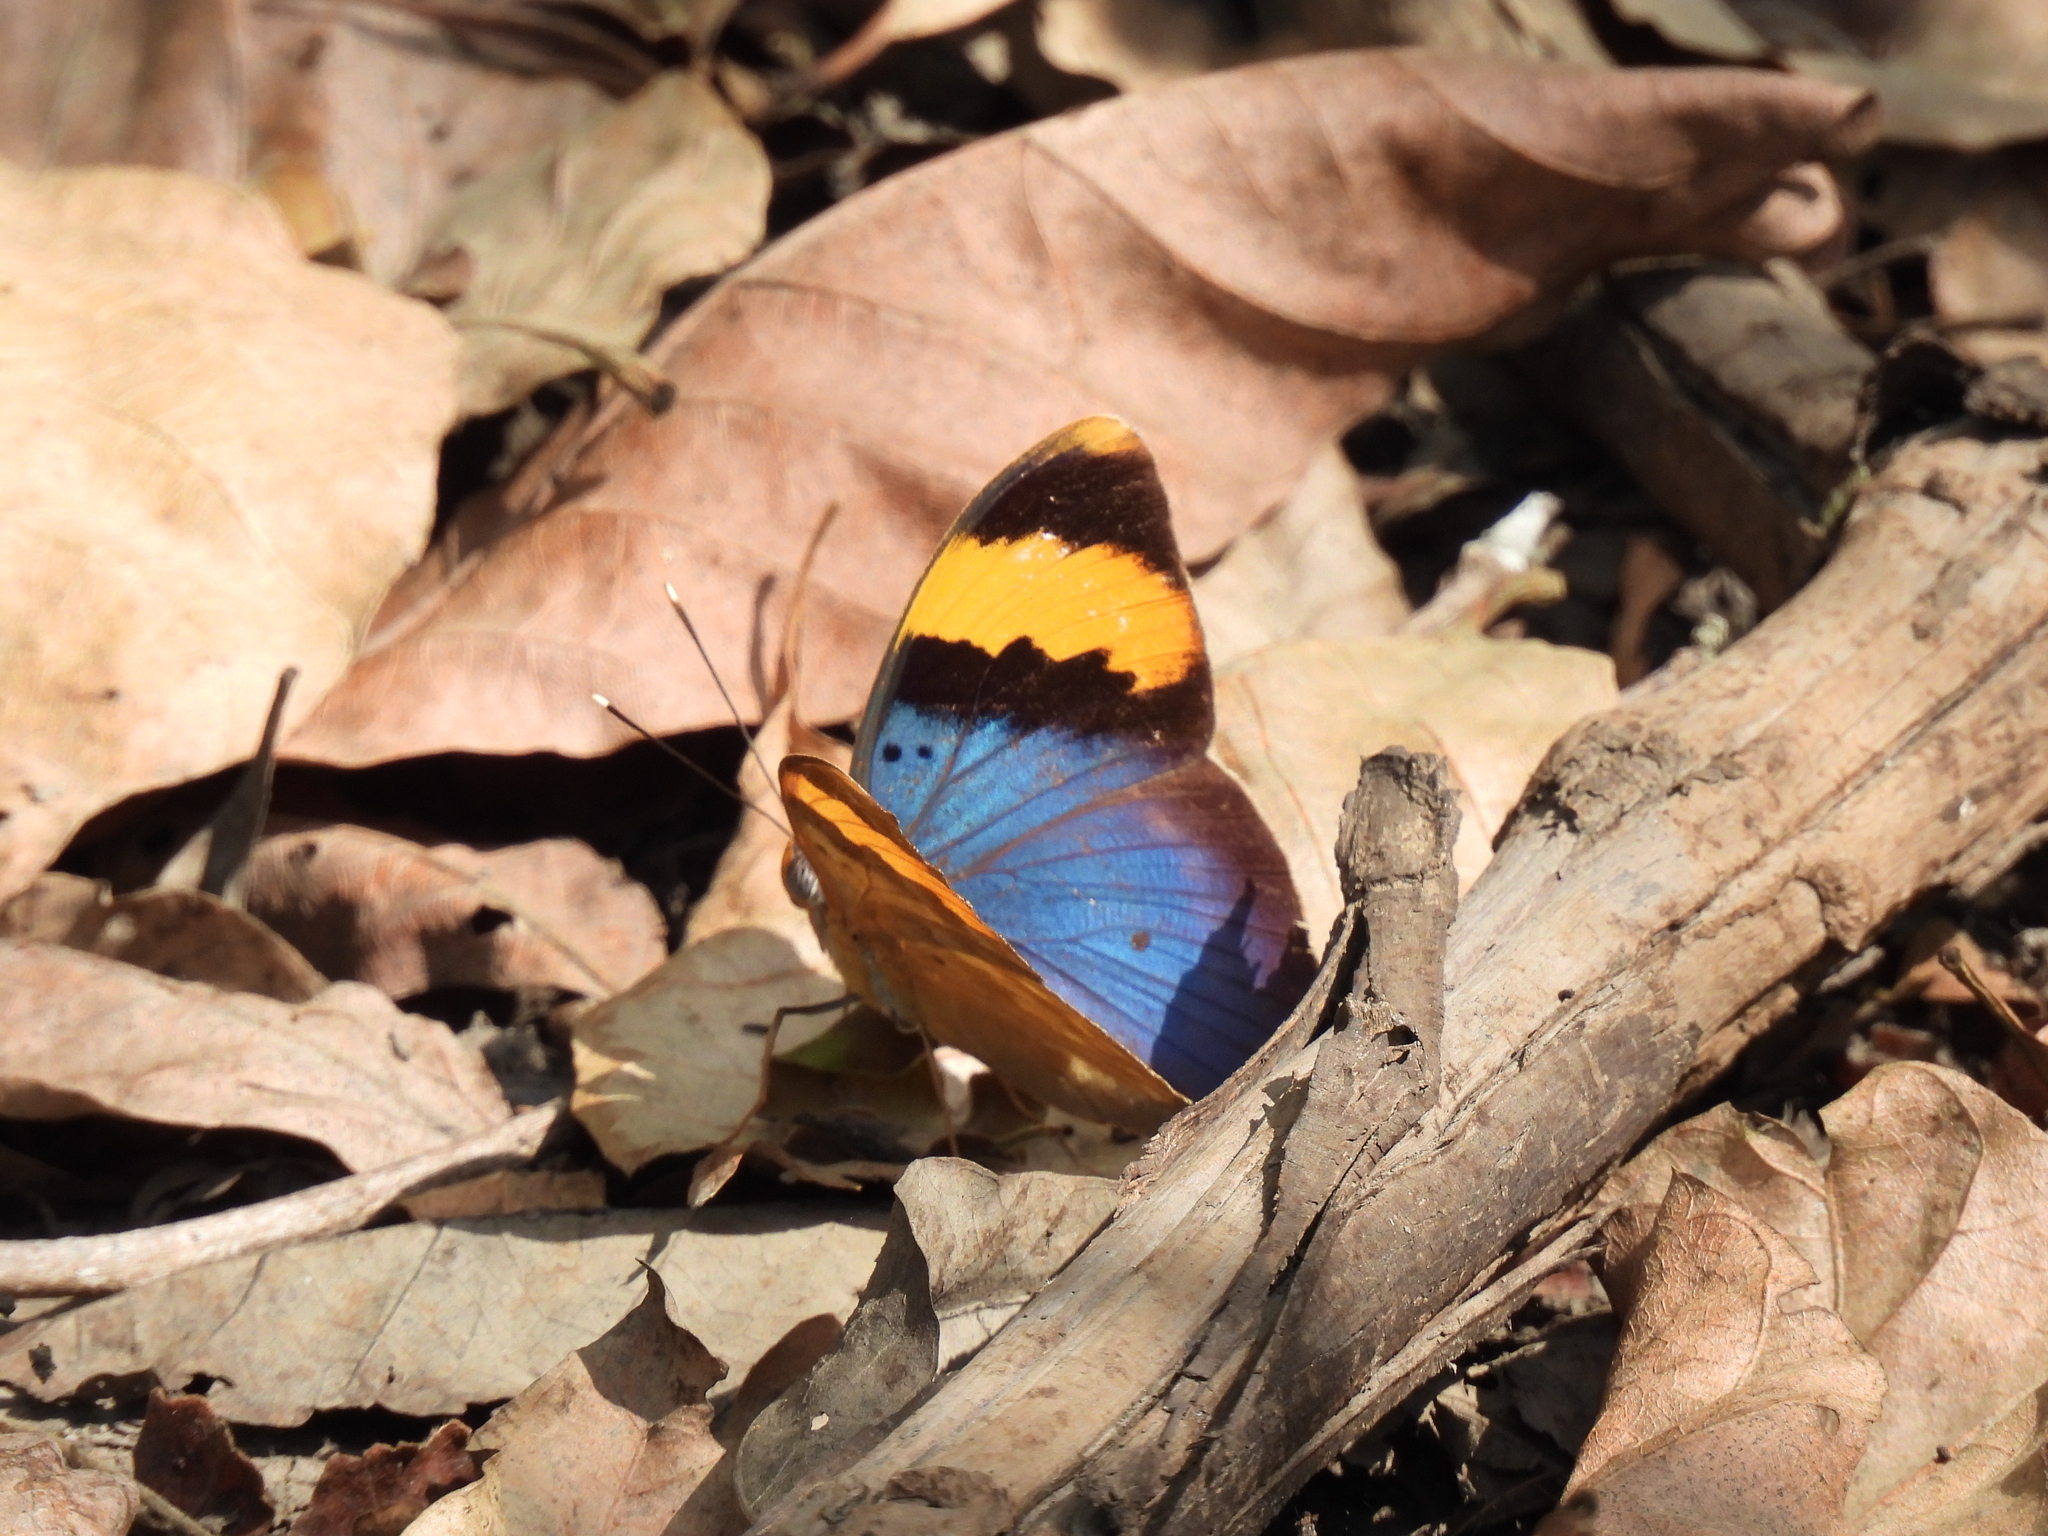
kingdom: Animalia
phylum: Arthropoda
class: Insecta
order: Lepidoptera
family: Nymphalidae
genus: Euphaedra
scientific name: Euphaedra neophron
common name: Gold-banded forester
